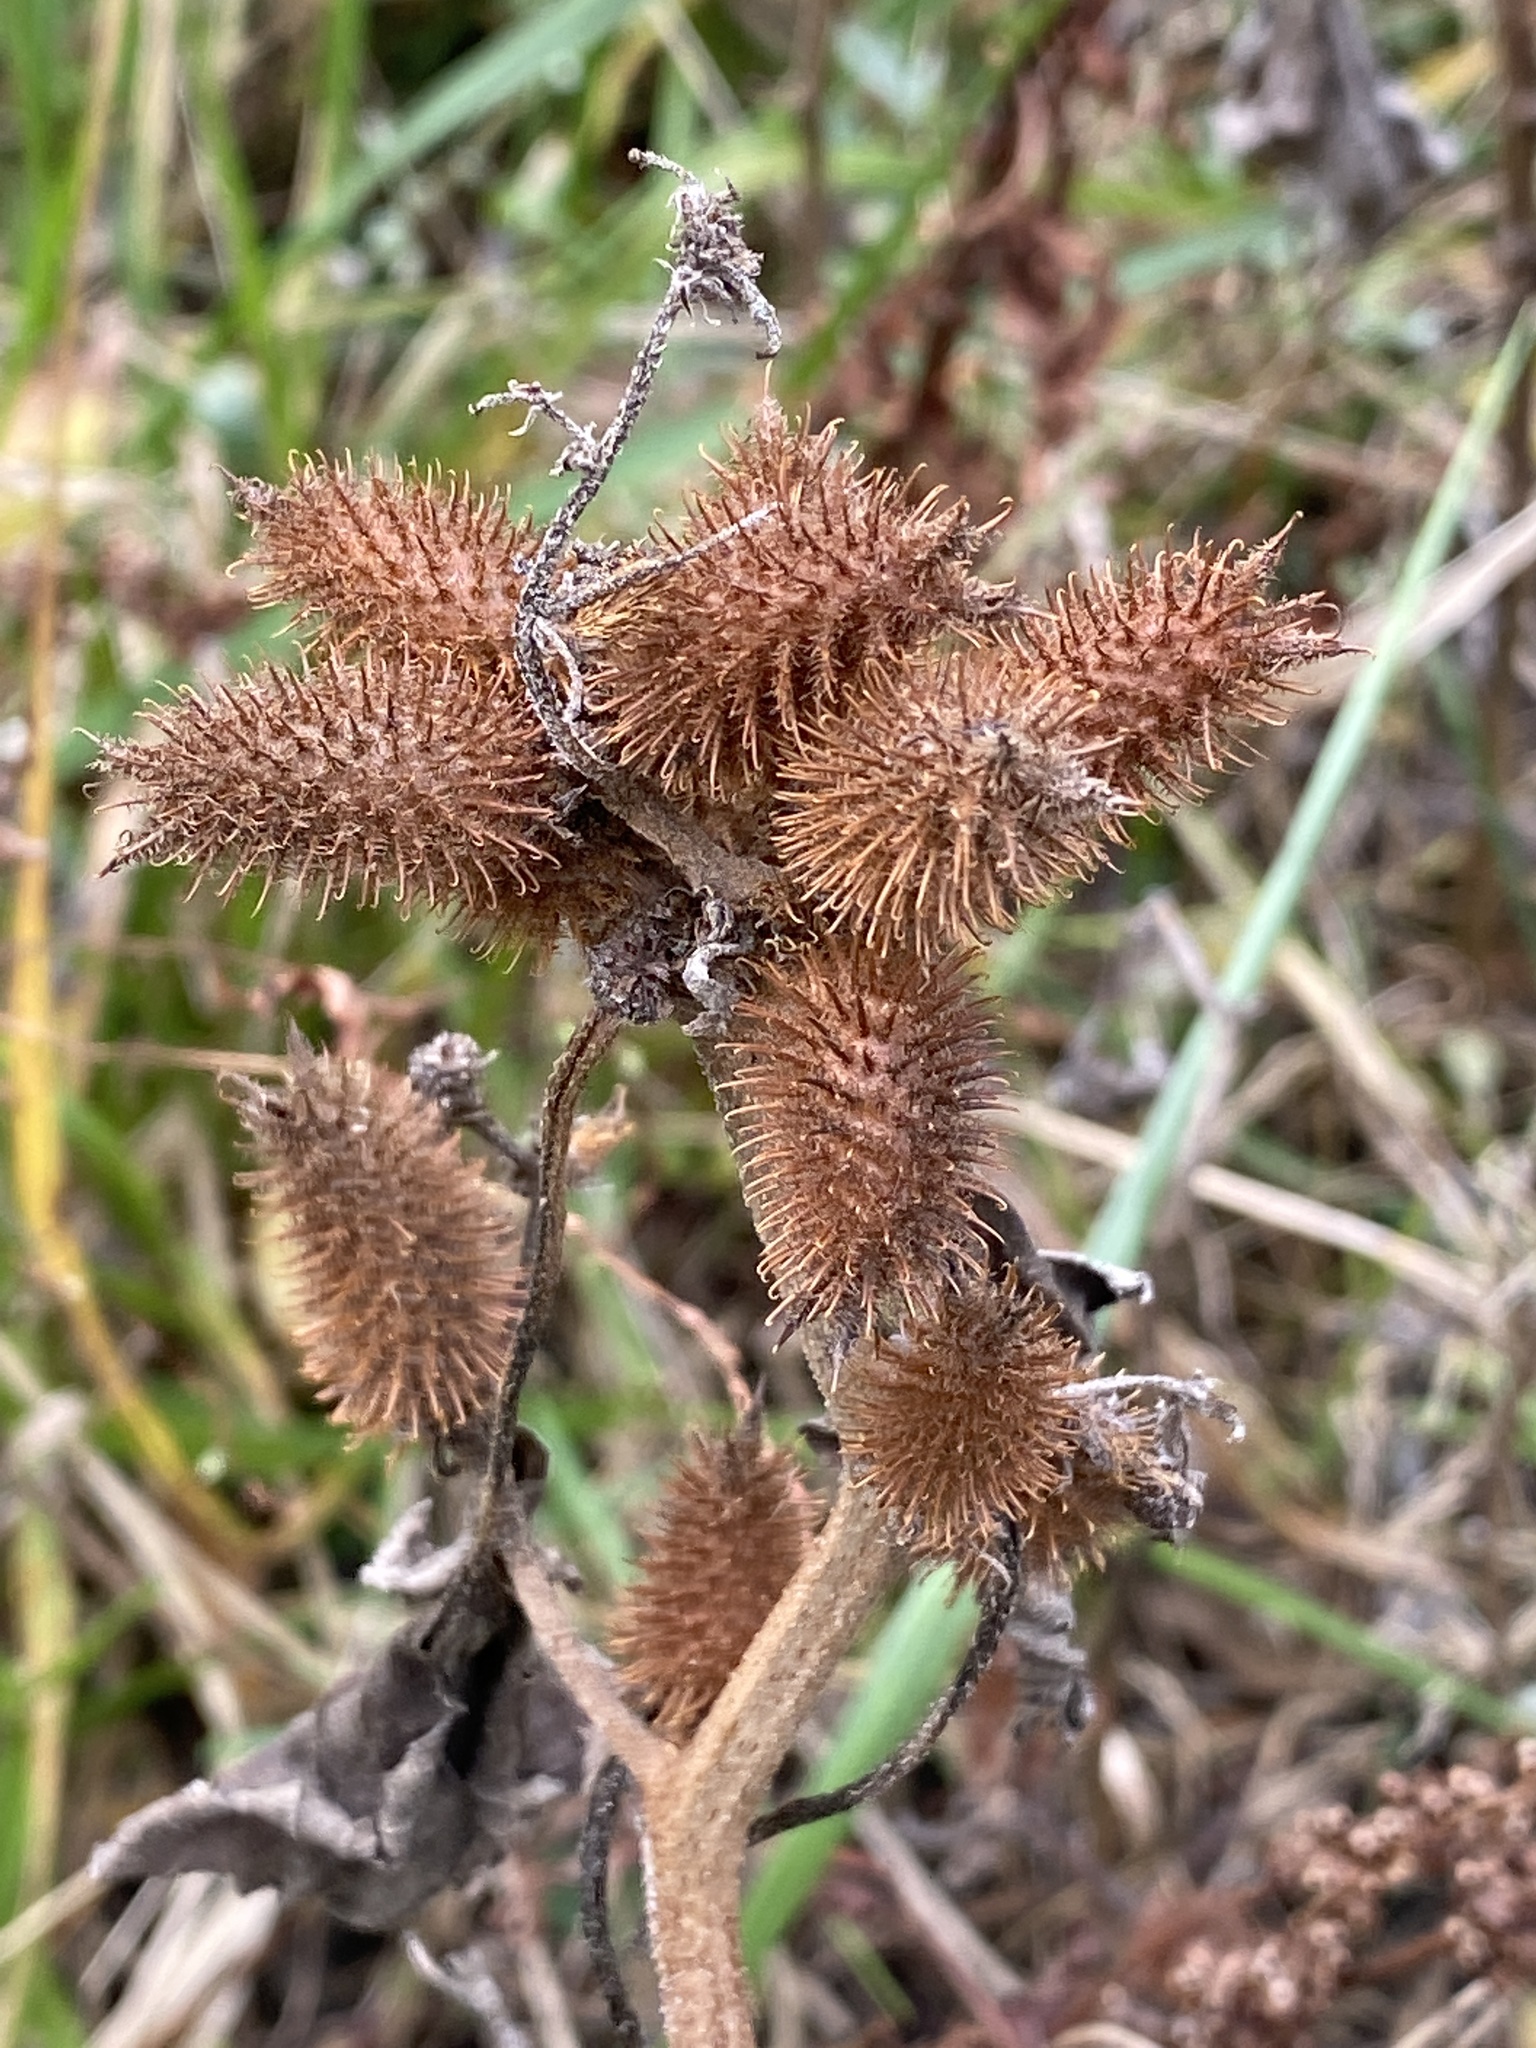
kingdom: Plantae
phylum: Tracheophyta
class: Magnoliopsida
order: Asterales
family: Asteraceae
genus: Xanthium
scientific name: Xanthium strumarium
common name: Rough cocklebur
